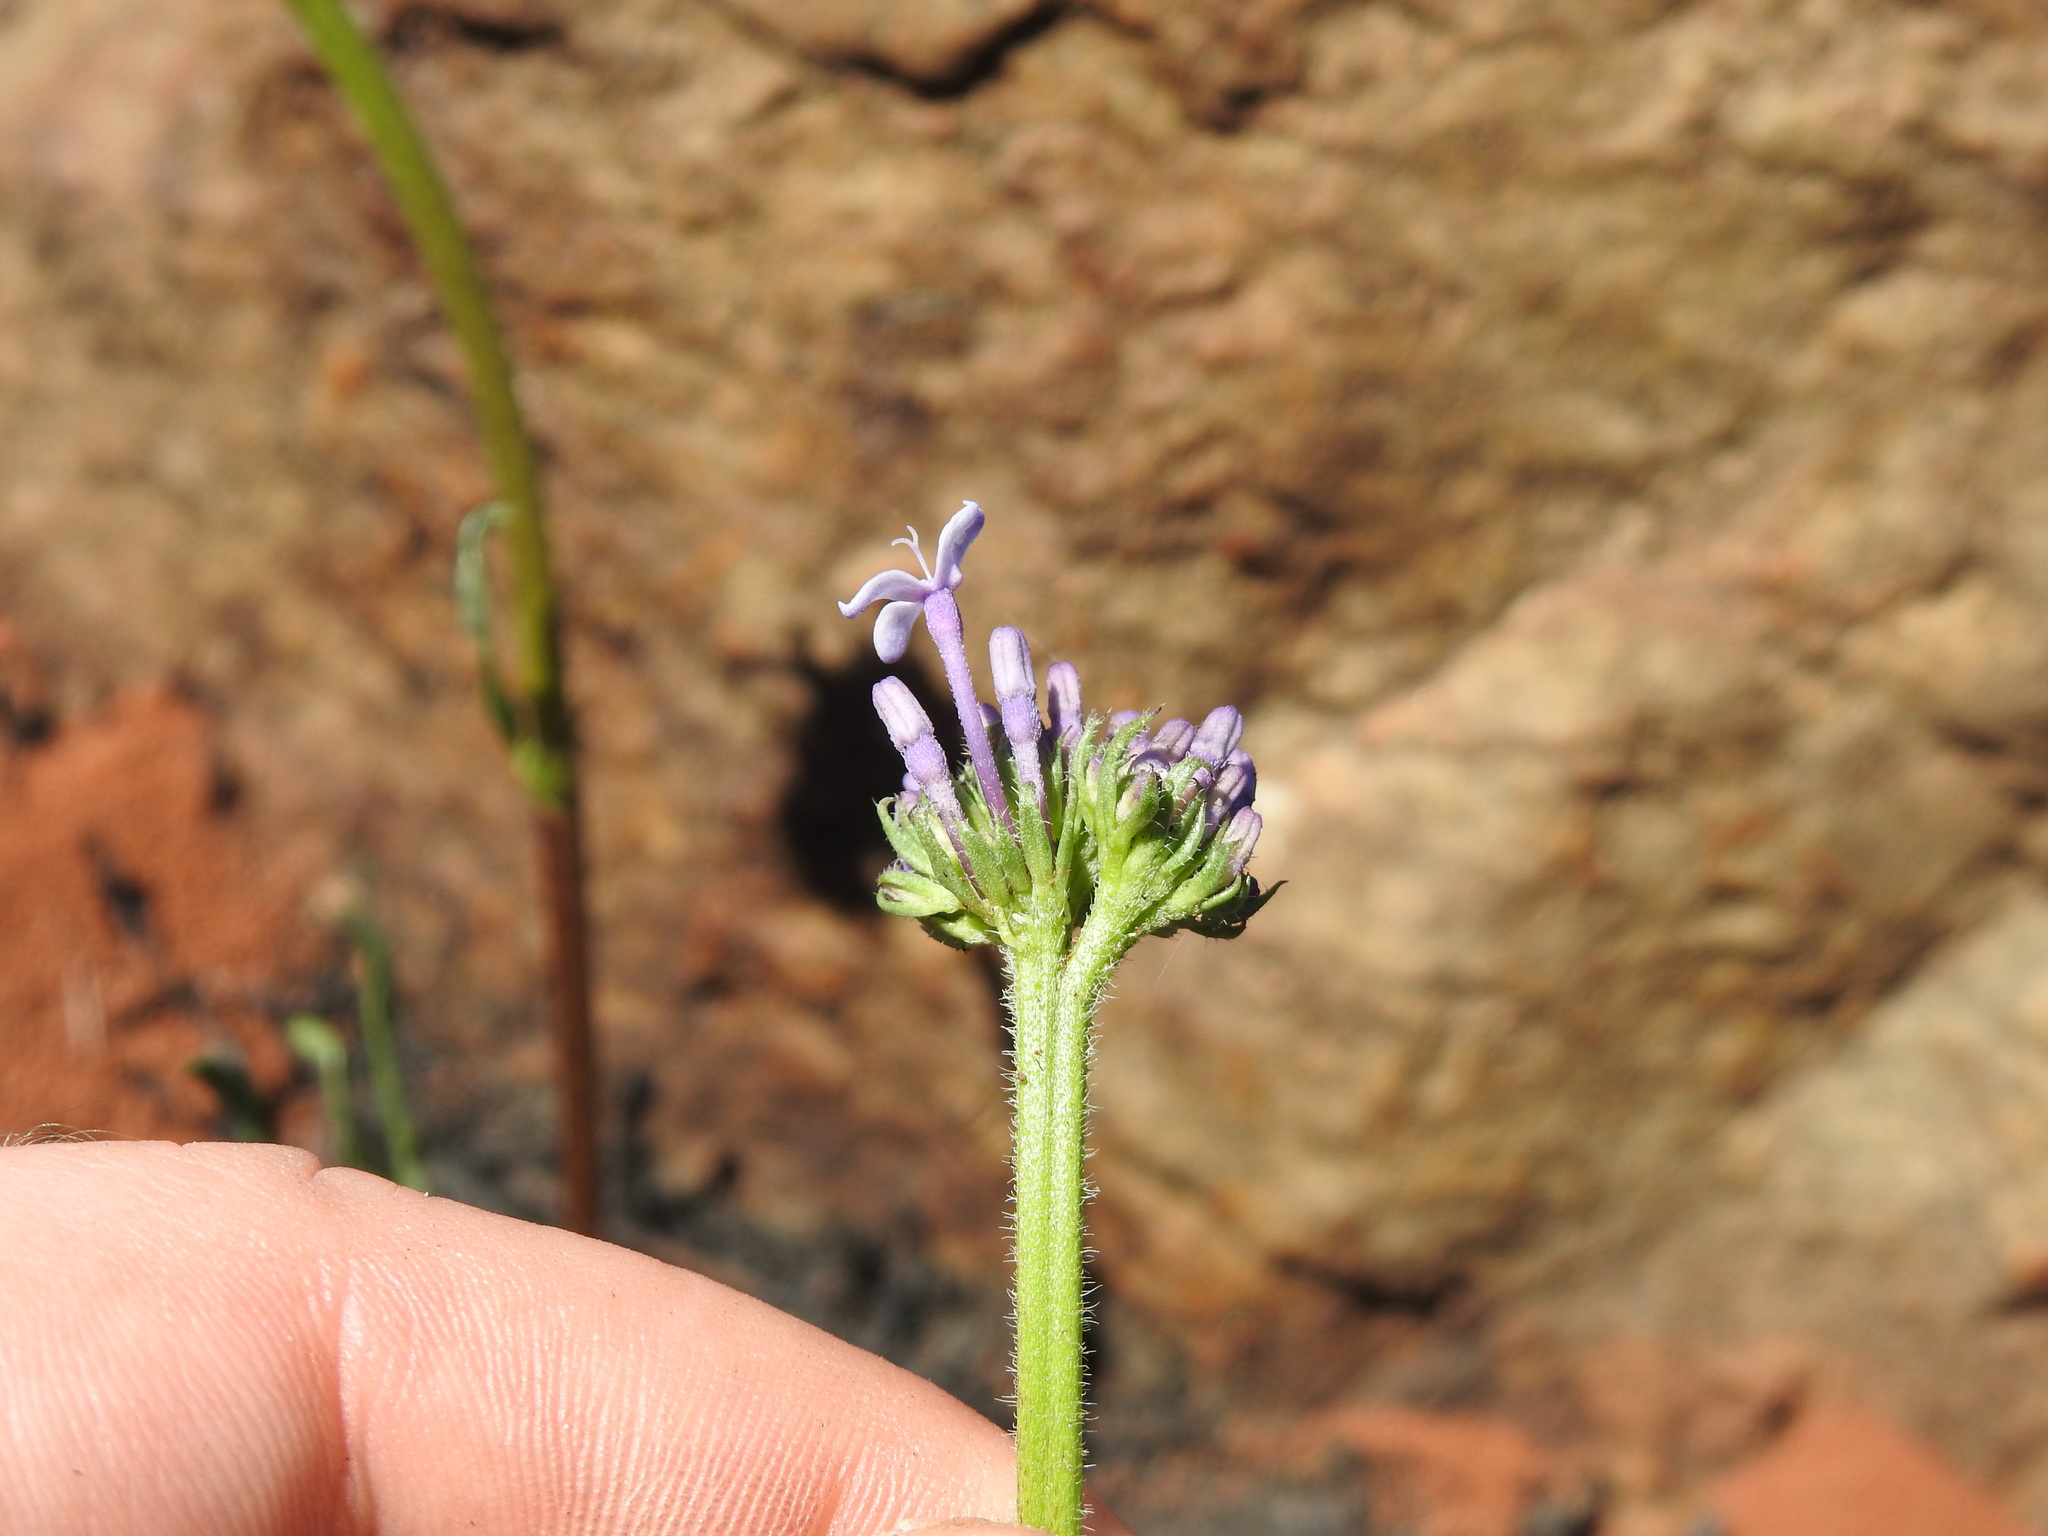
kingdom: Plantae
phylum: Tracheophyta
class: Magnoliopsida
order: Gentianales
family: Rubiaceae
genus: Pentanisia
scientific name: Pentanisia angustifolia
